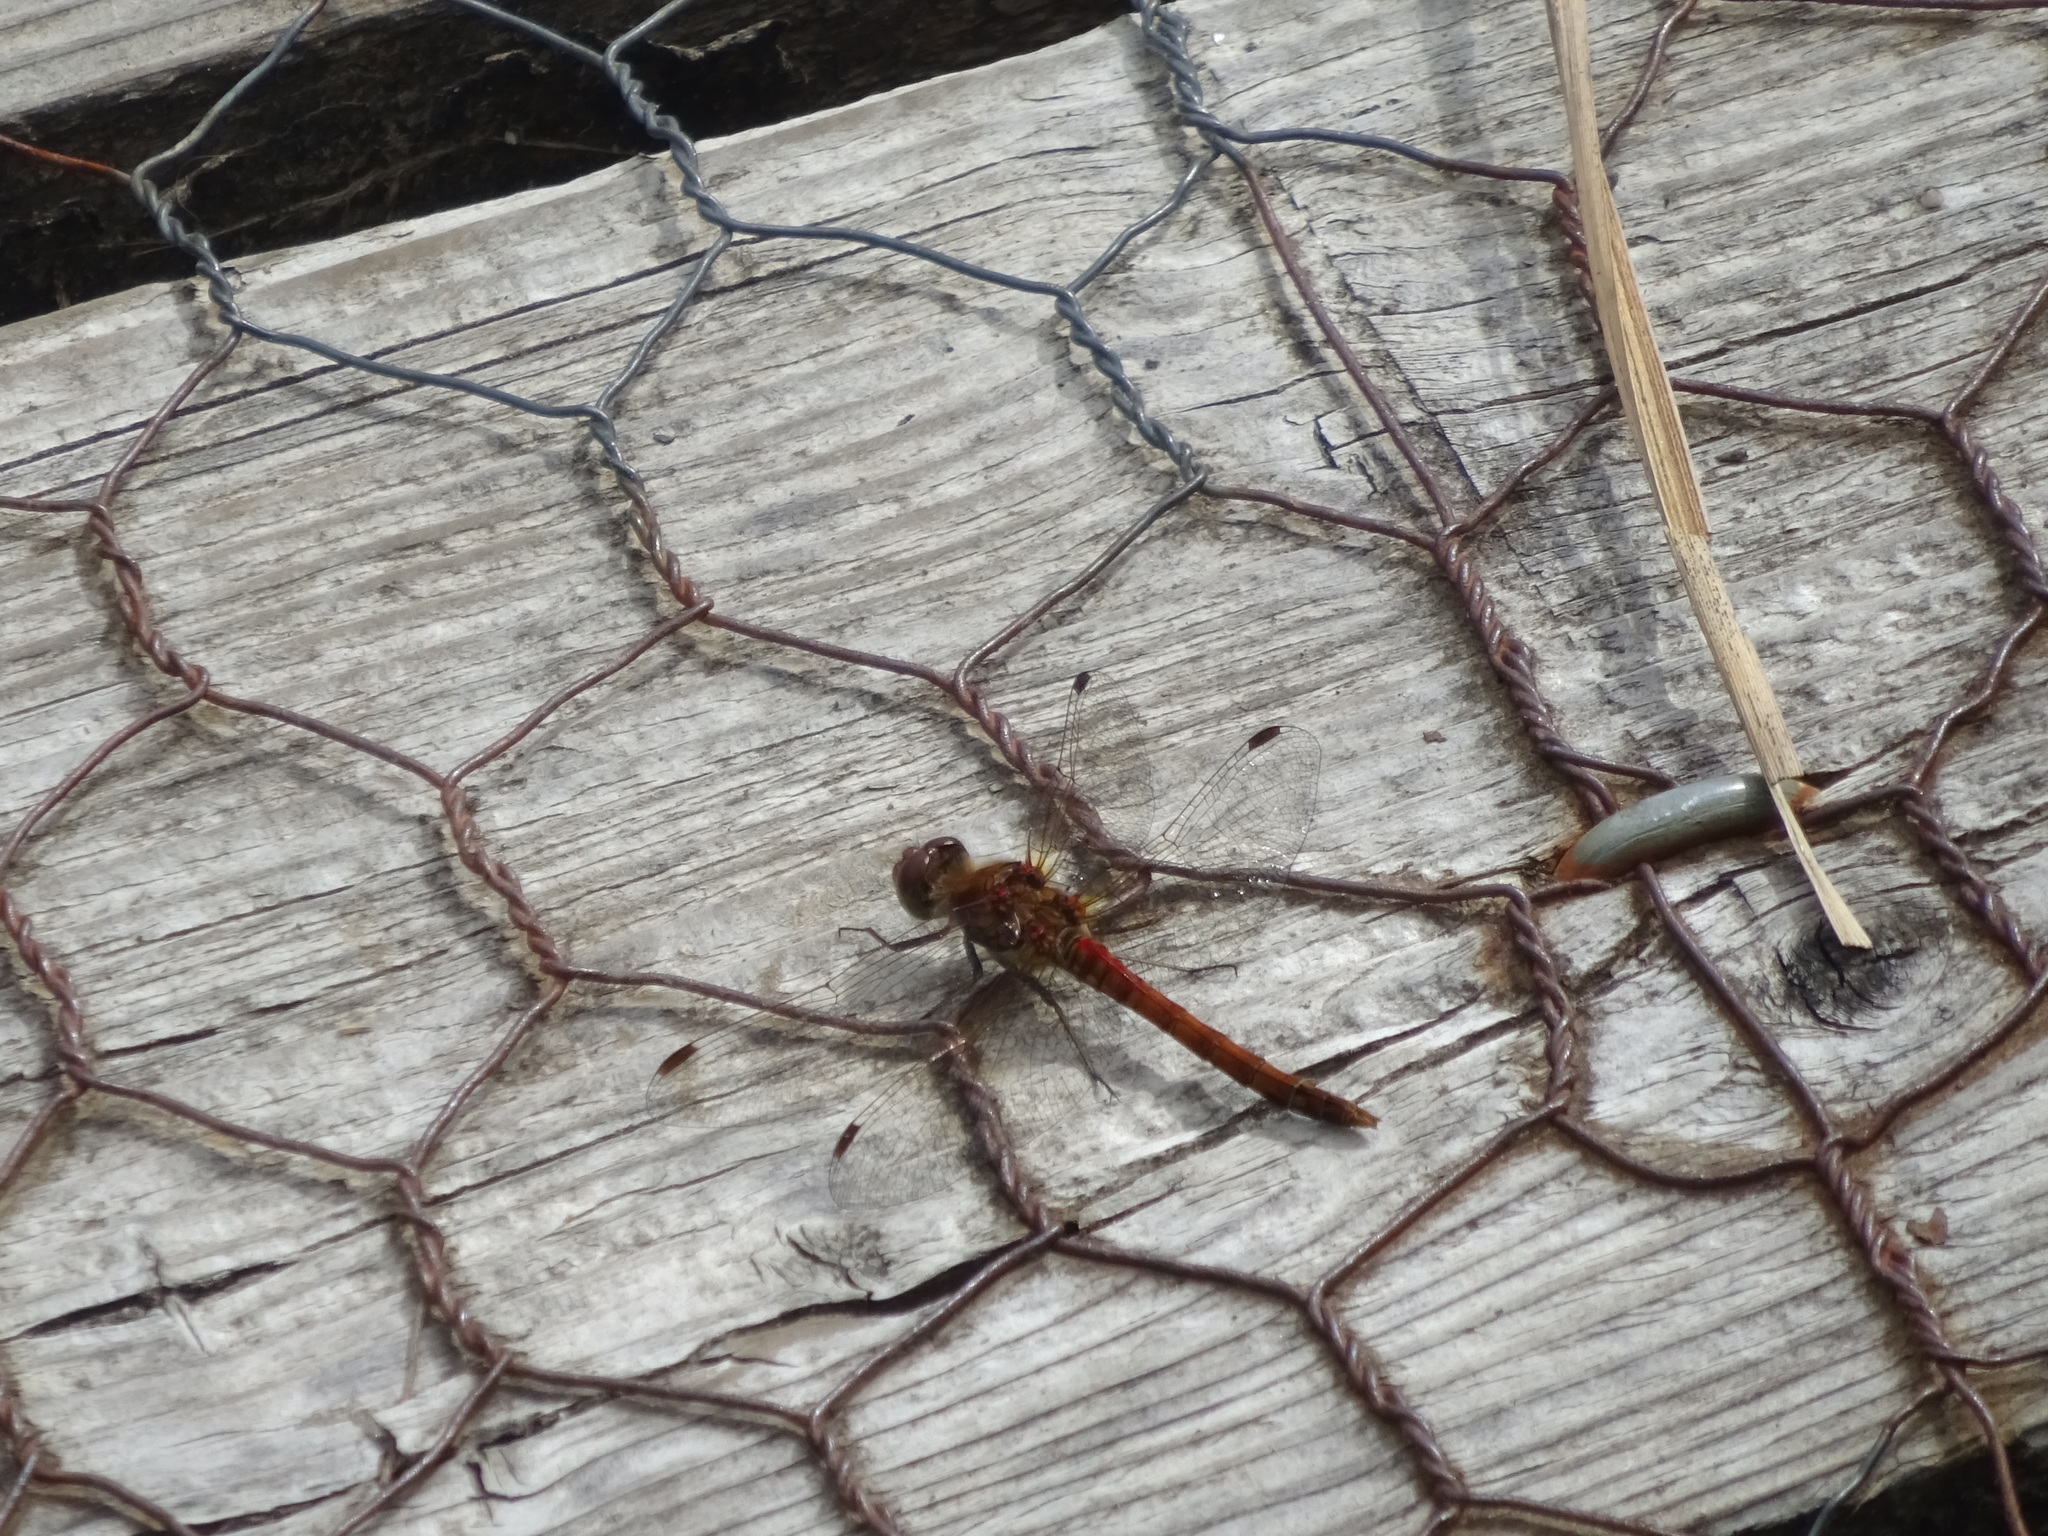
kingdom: Animalia
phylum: Arthropoda
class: Insecta
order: Odonata
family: Libellulidae
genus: Sympetrum
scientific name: Sympetrum striolatum
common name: Common darter
